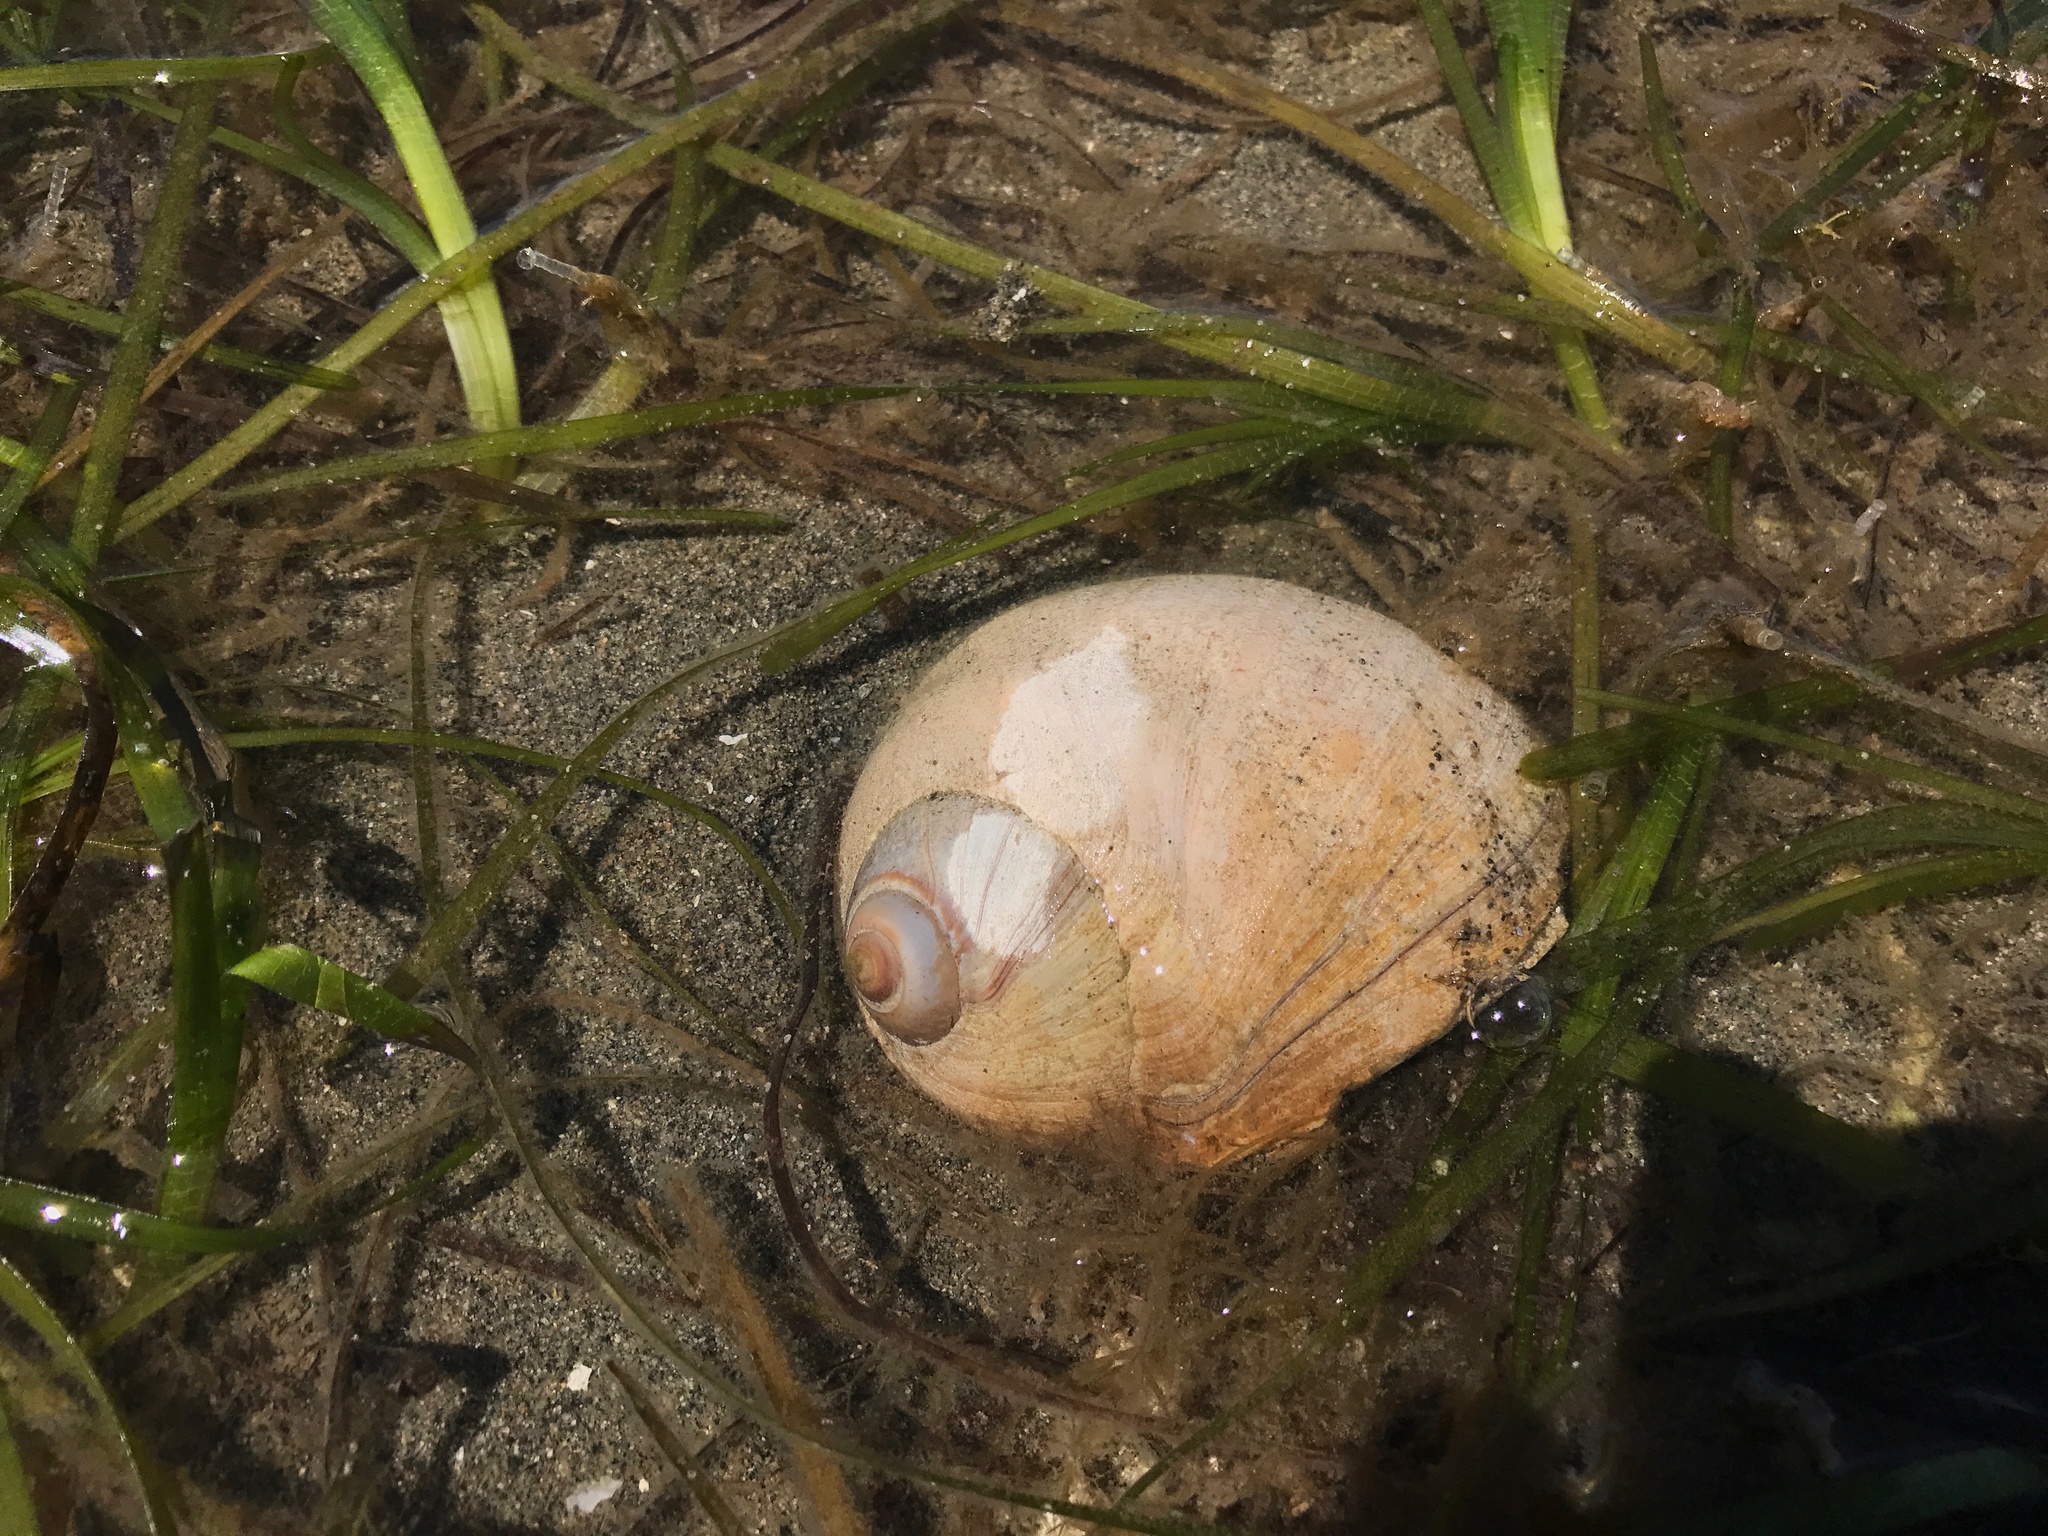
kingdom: Animalia
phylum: Mollusca
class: Gastropoda
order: Littorinimorpha
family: Naticidae
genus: Neverita
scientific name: Neverita lewisii
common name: Lewis' moonsnail
